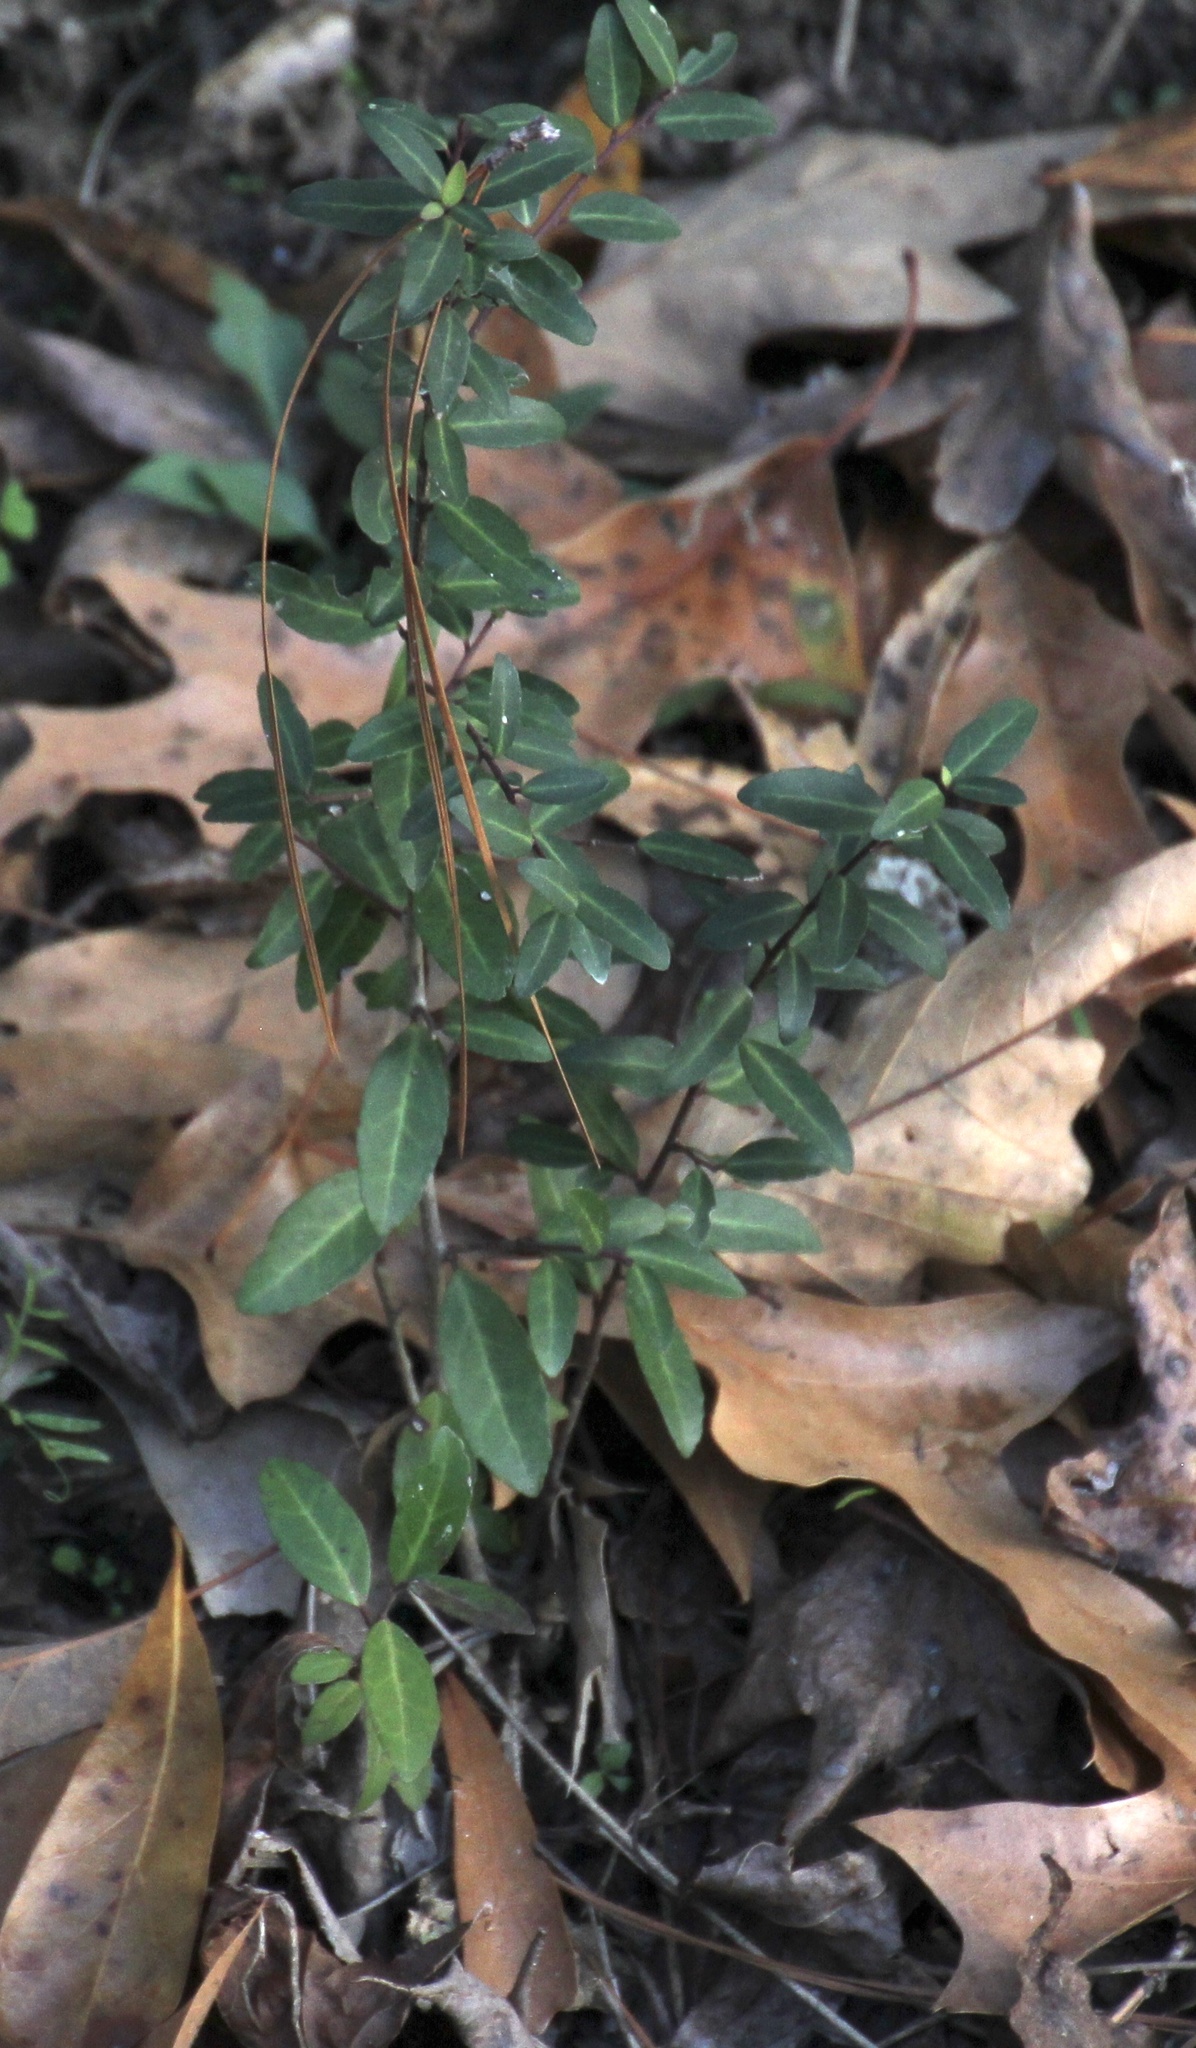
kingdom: Plantae
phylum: Tracheophyta
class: Magnoliopsida
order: Aquifoliales
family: Aquifoliaceae
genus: Ilex
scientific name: Ilex vomitoria
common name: Yaupon holly
